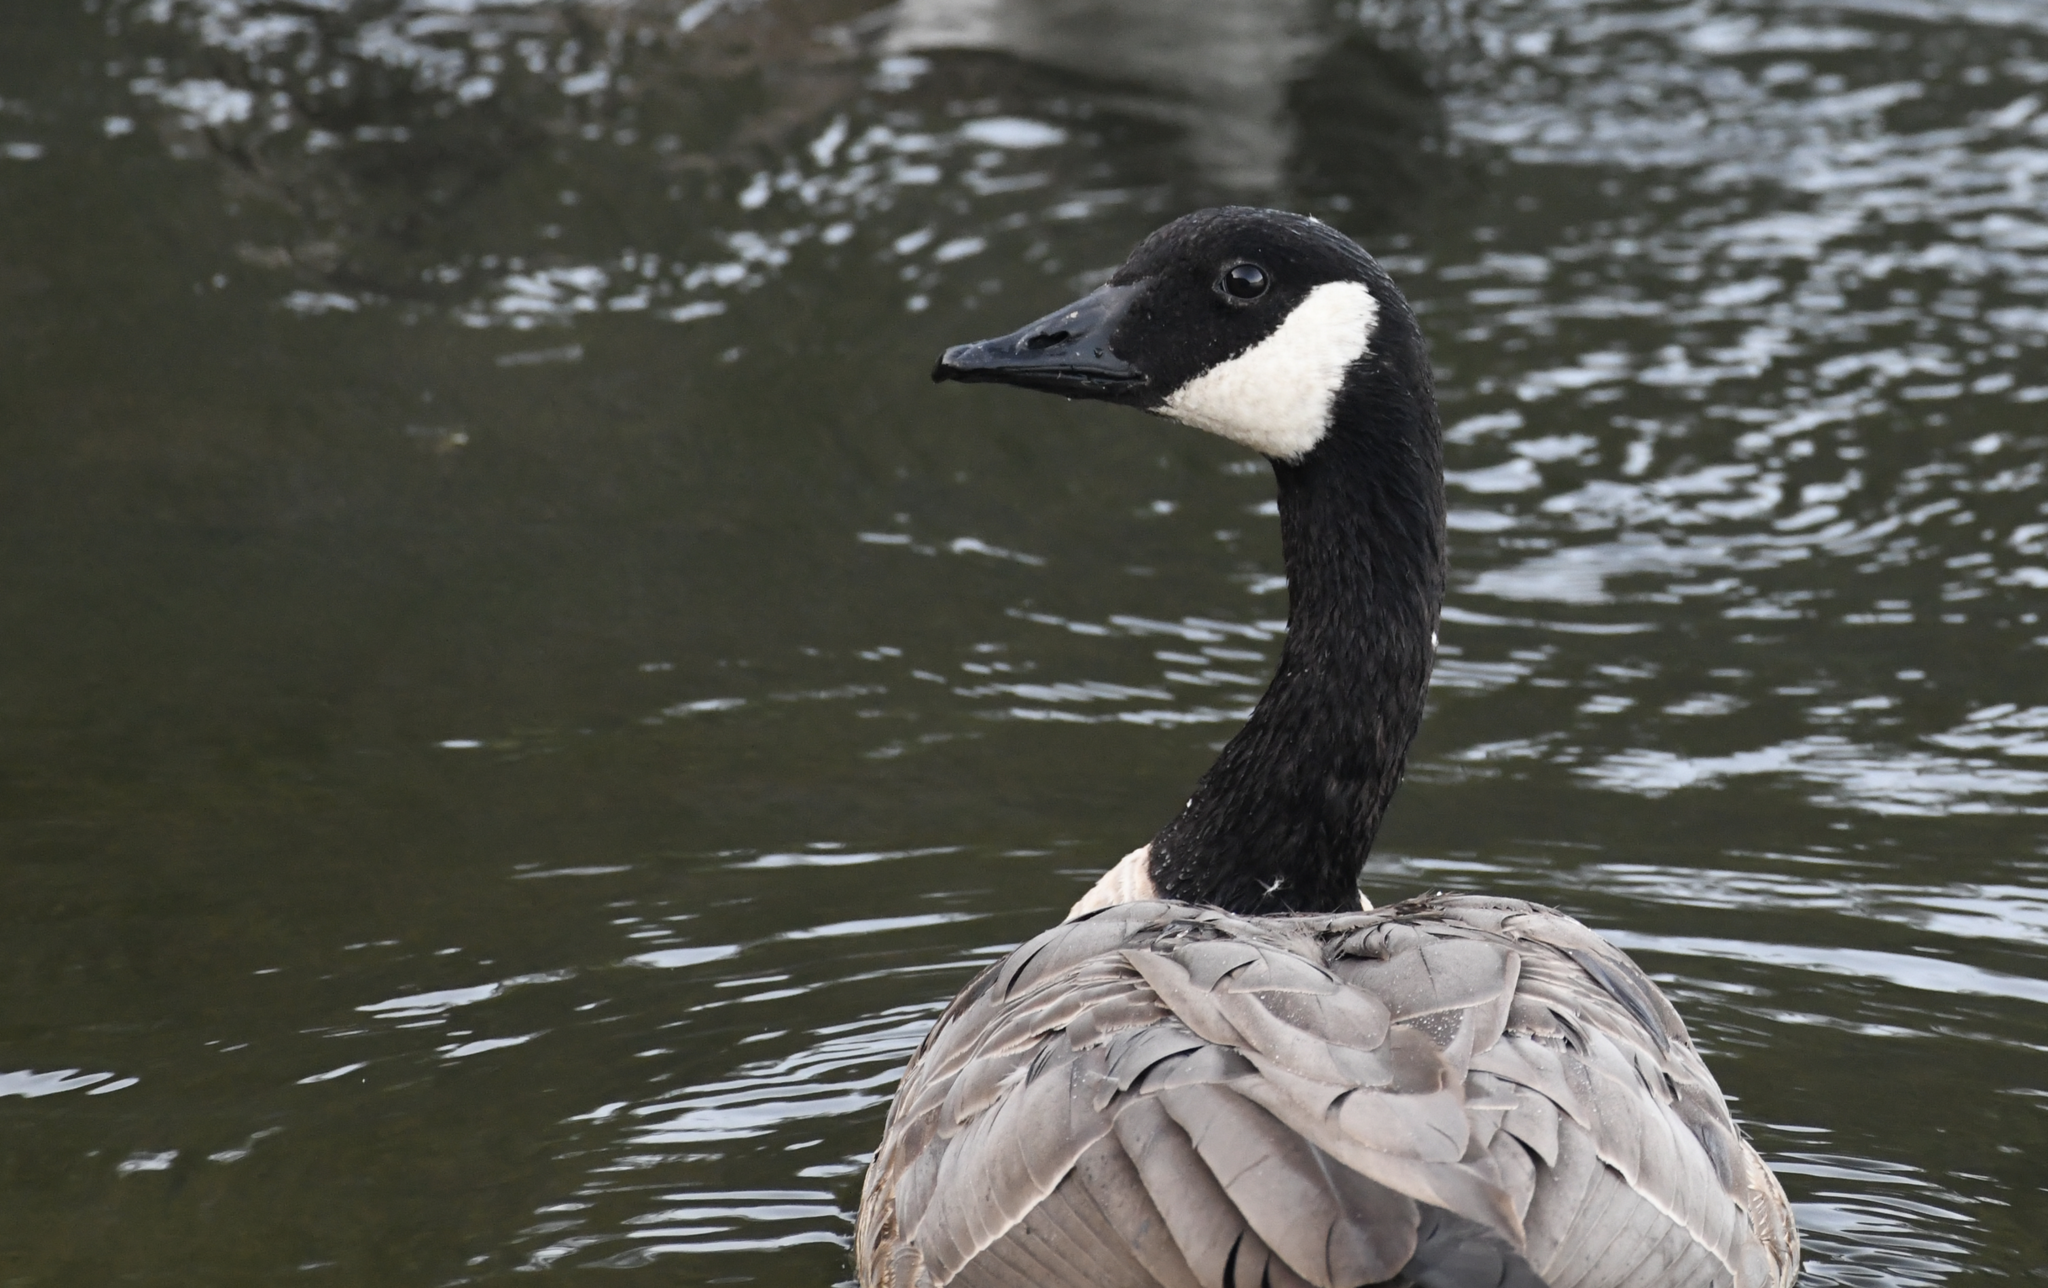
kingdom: Animalia
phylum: Chordata
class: Aves
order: Anseriformes
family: Anatidae
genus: Branta
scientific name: Branta canadensis
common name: Canada goose
